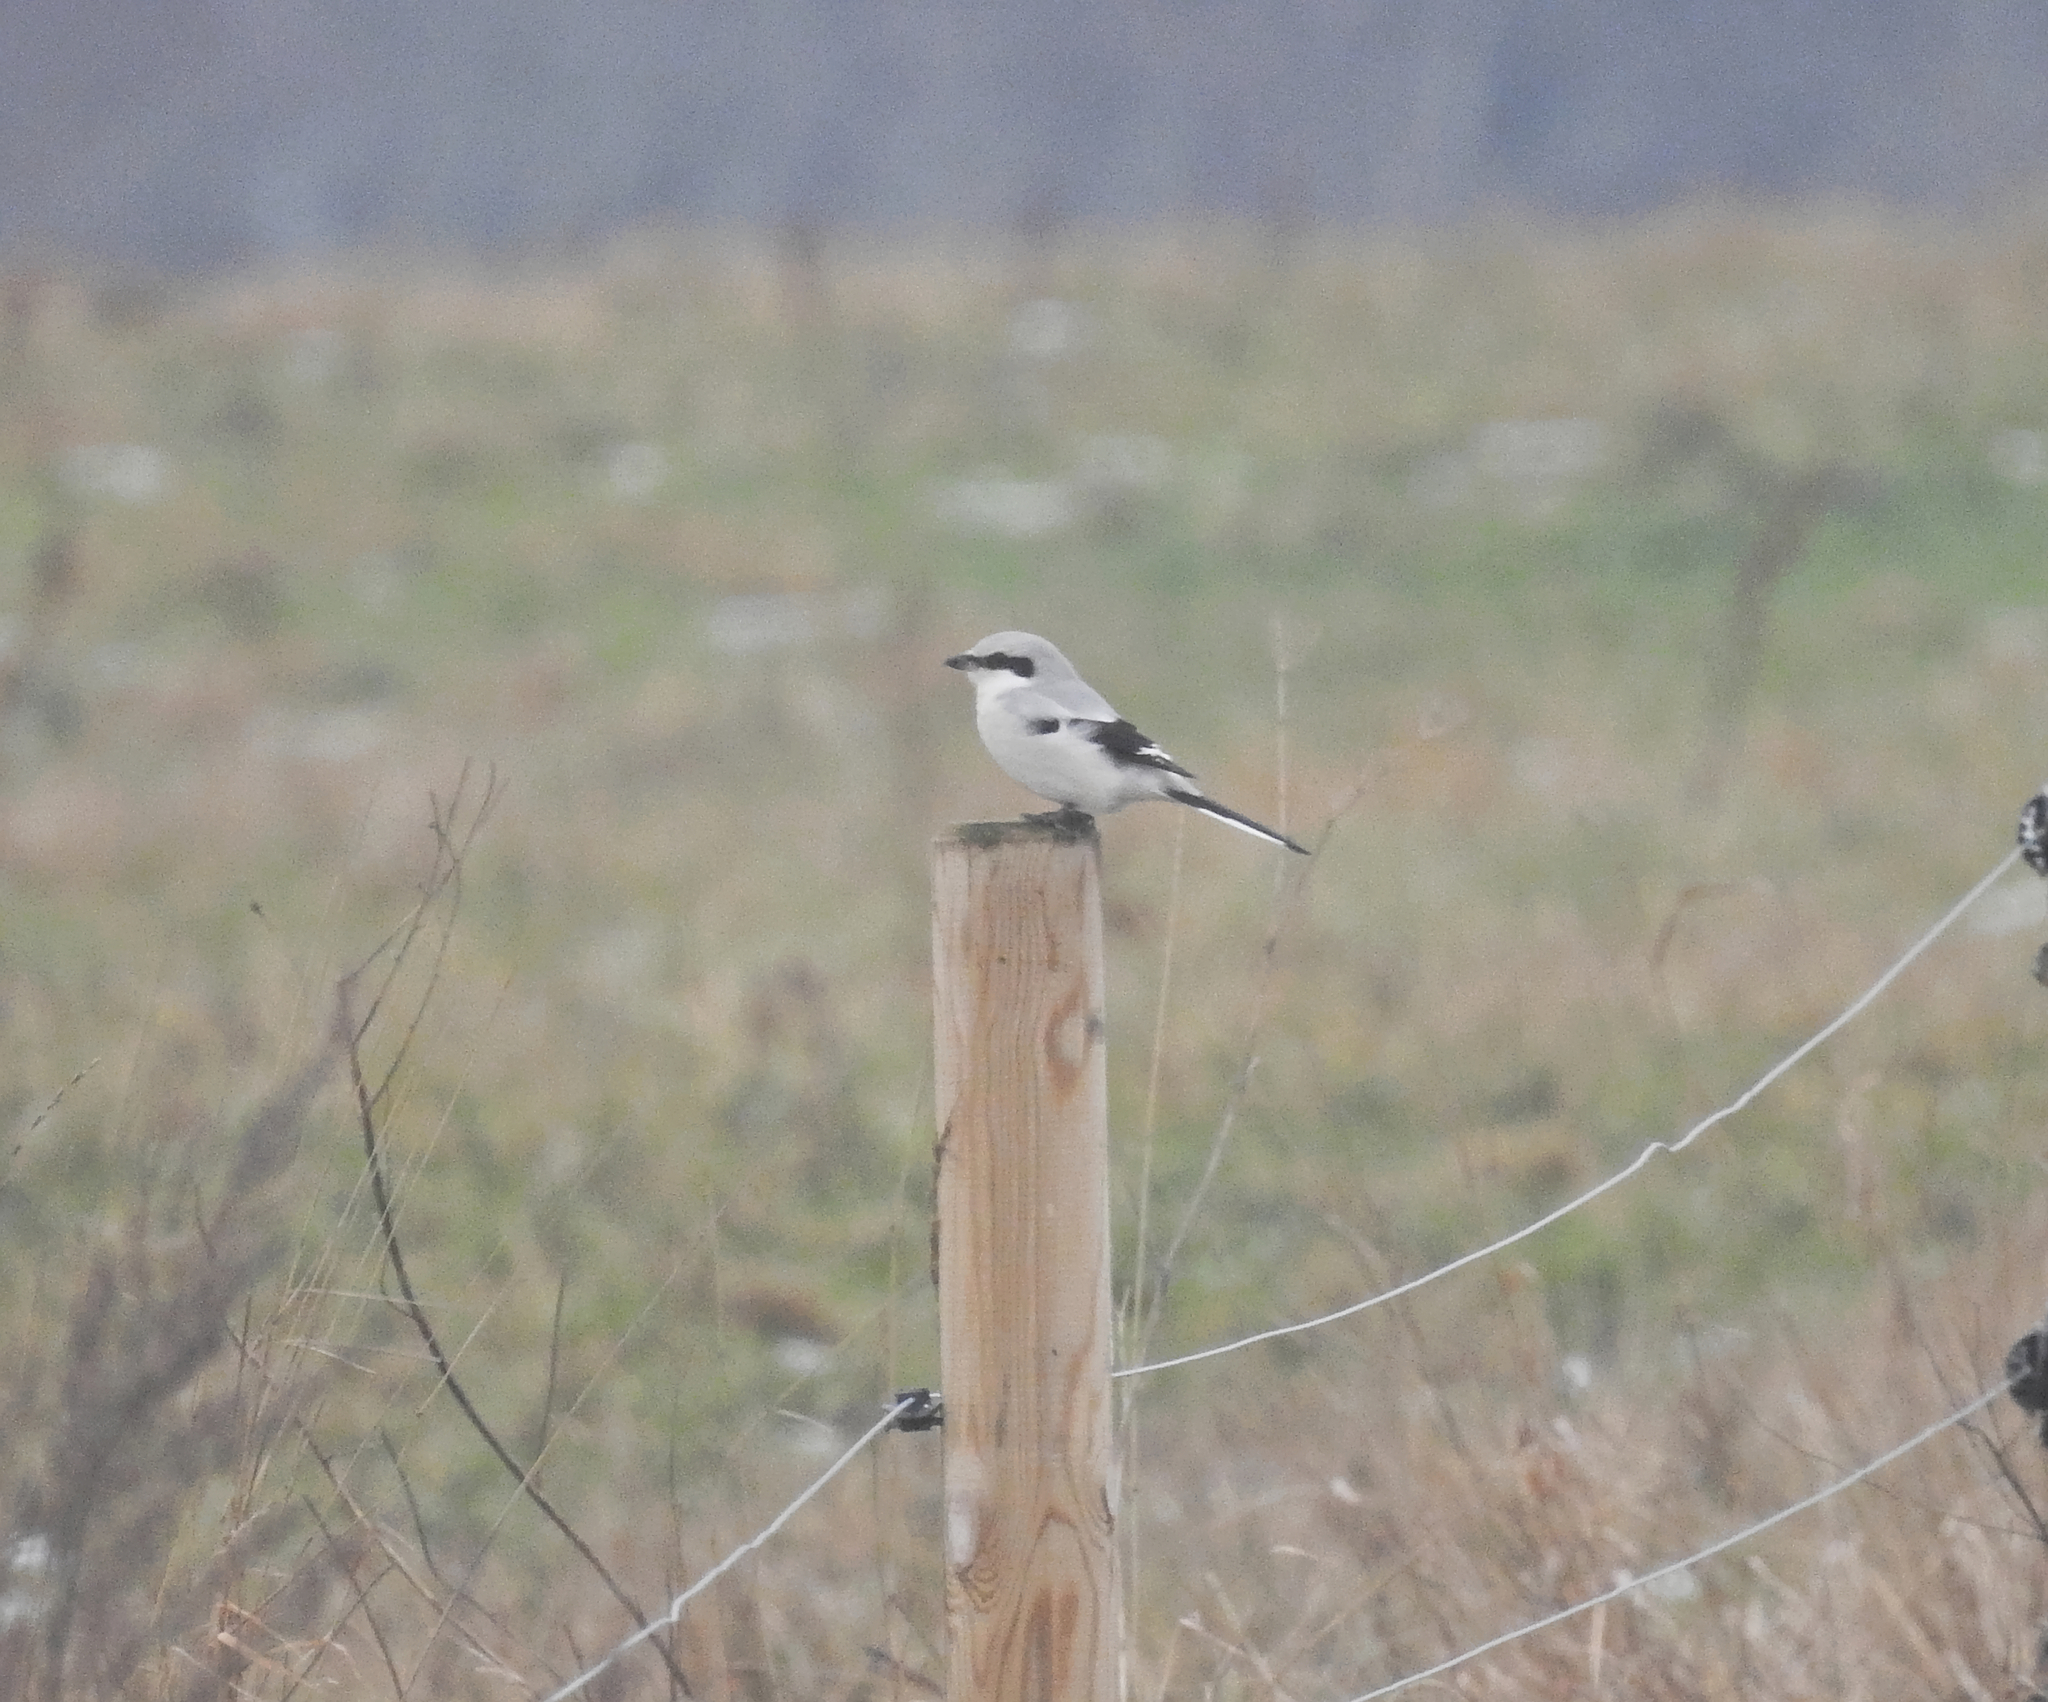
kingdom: Animalia
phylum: Chordata
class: Aves
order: Passeriformes
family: Laniidae
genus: Lanius
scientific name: Lanius excubitor
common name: Great grey shrike
